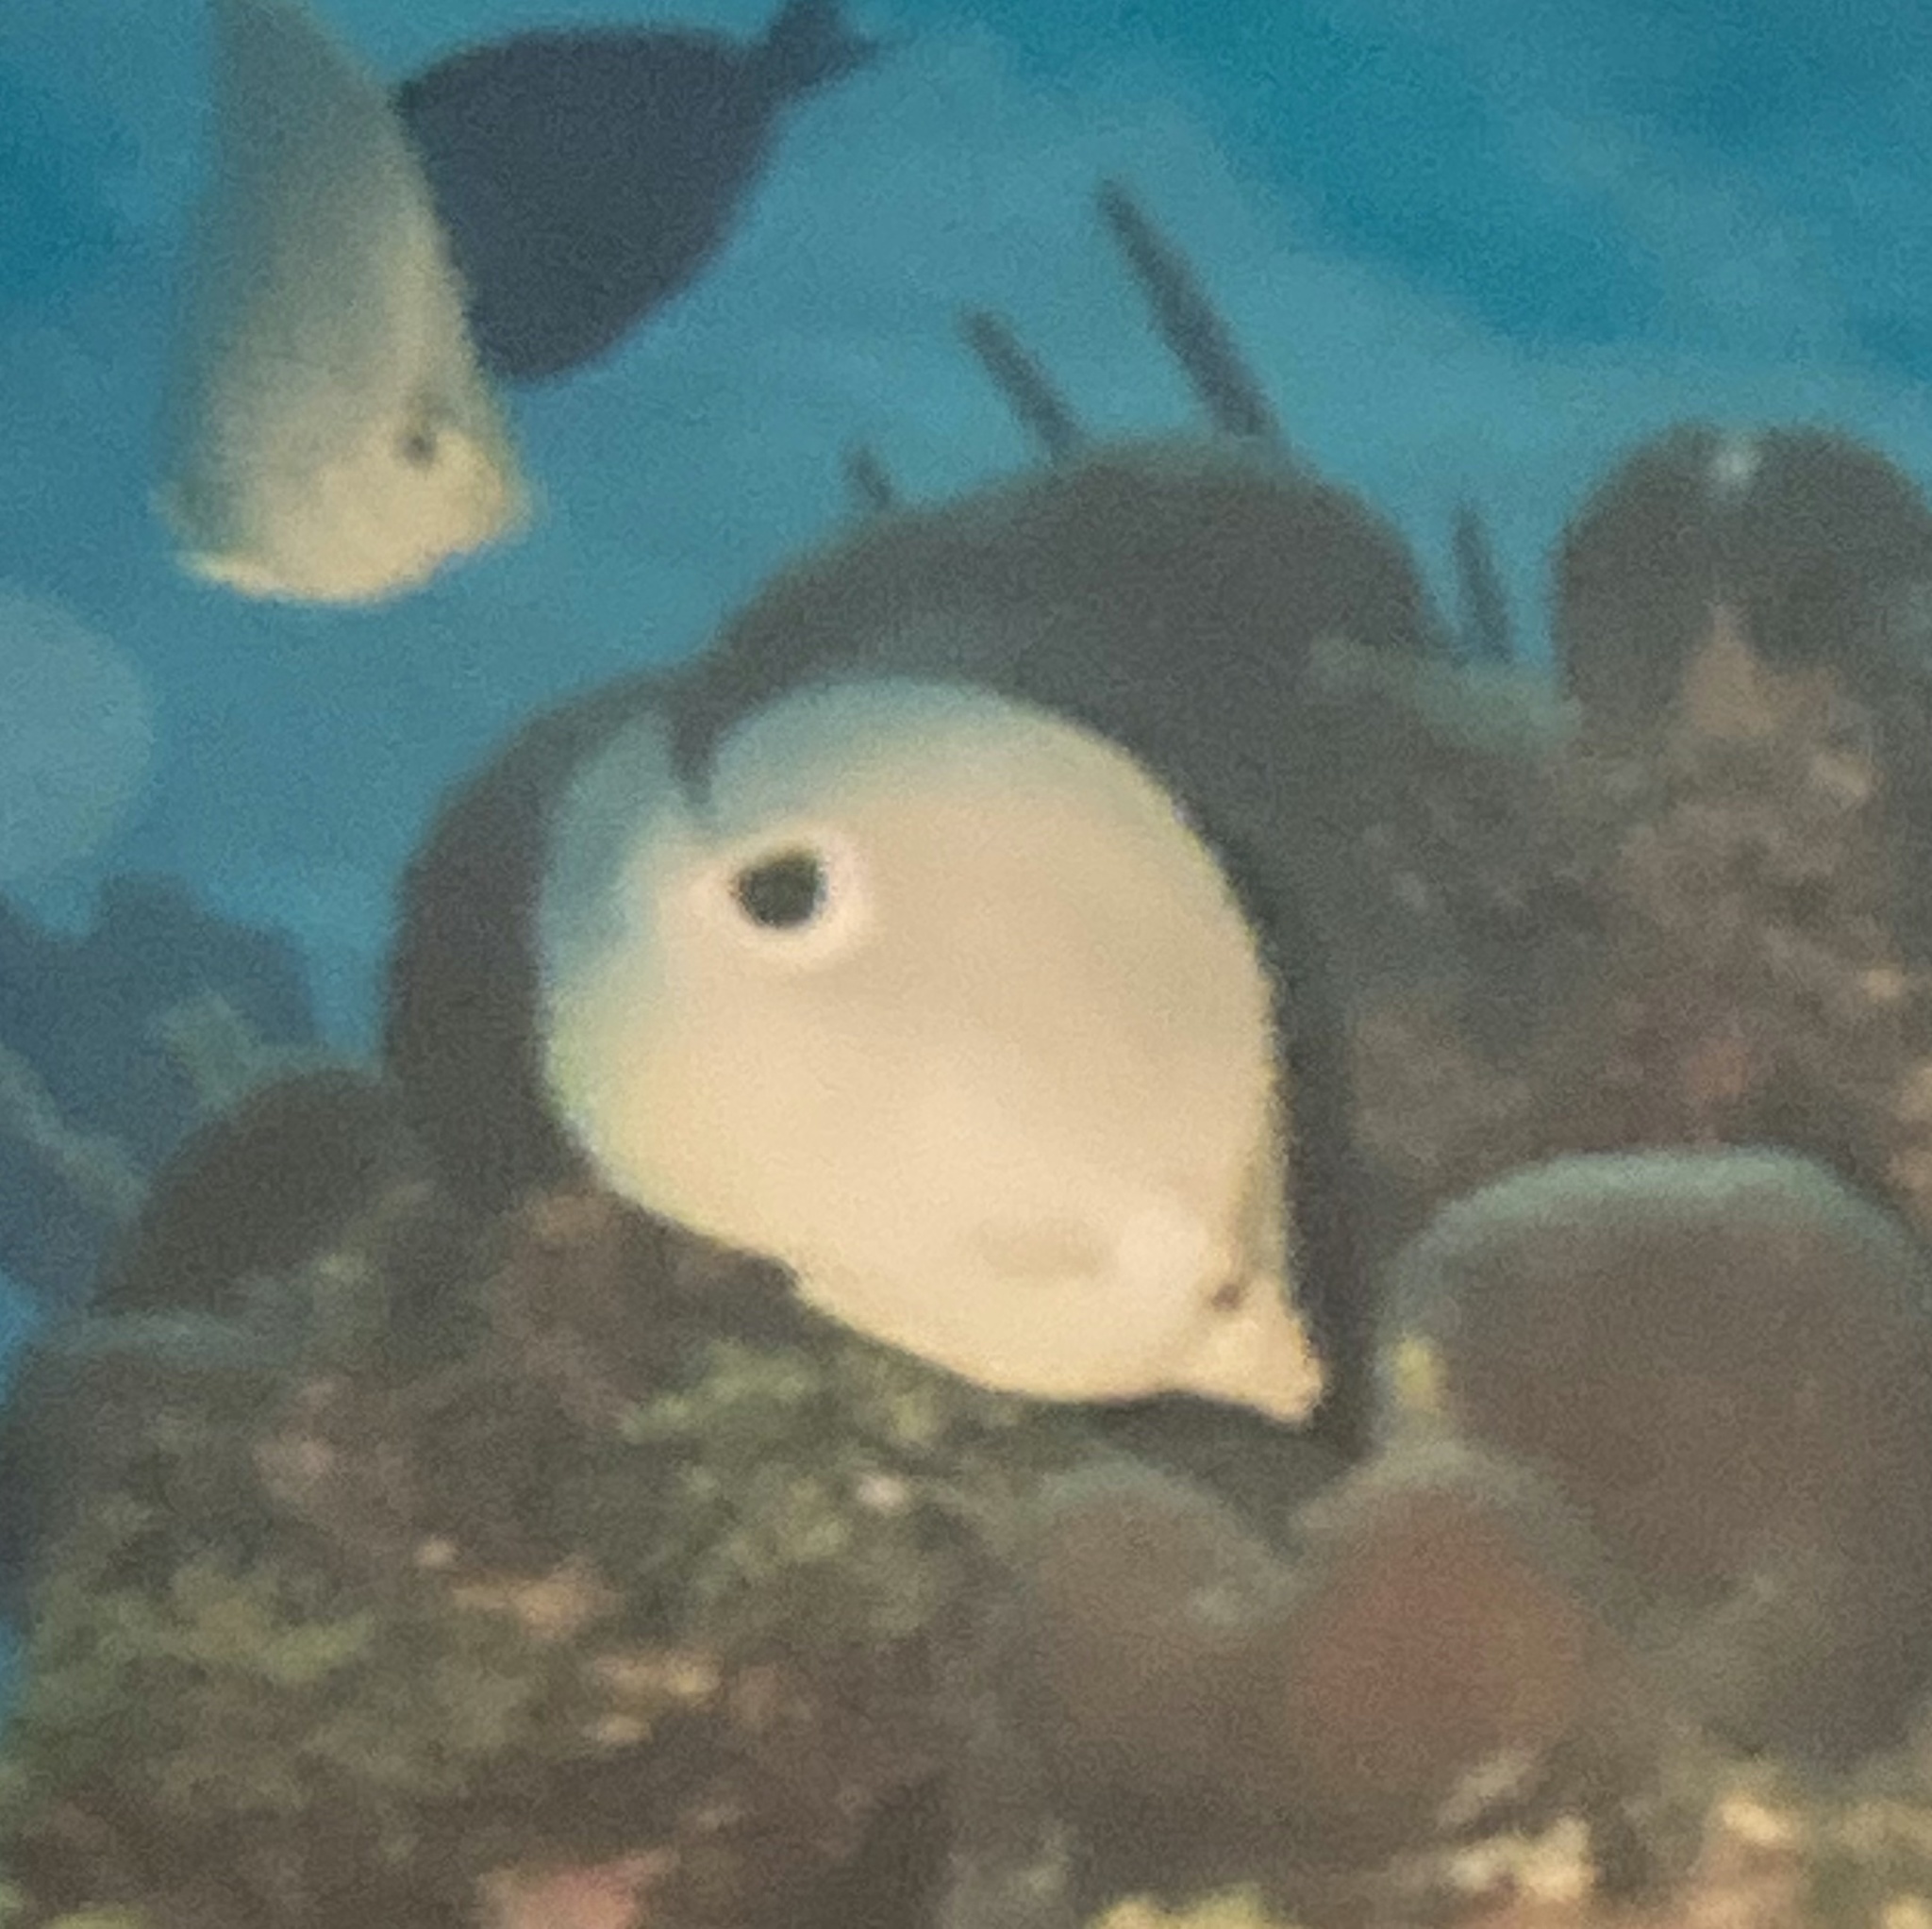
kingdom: Animalia
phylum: Chordata
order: Perciformes
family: Chaetodontidae
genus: Chaetodon
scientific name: Chaetodon capistratus
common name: Kete
